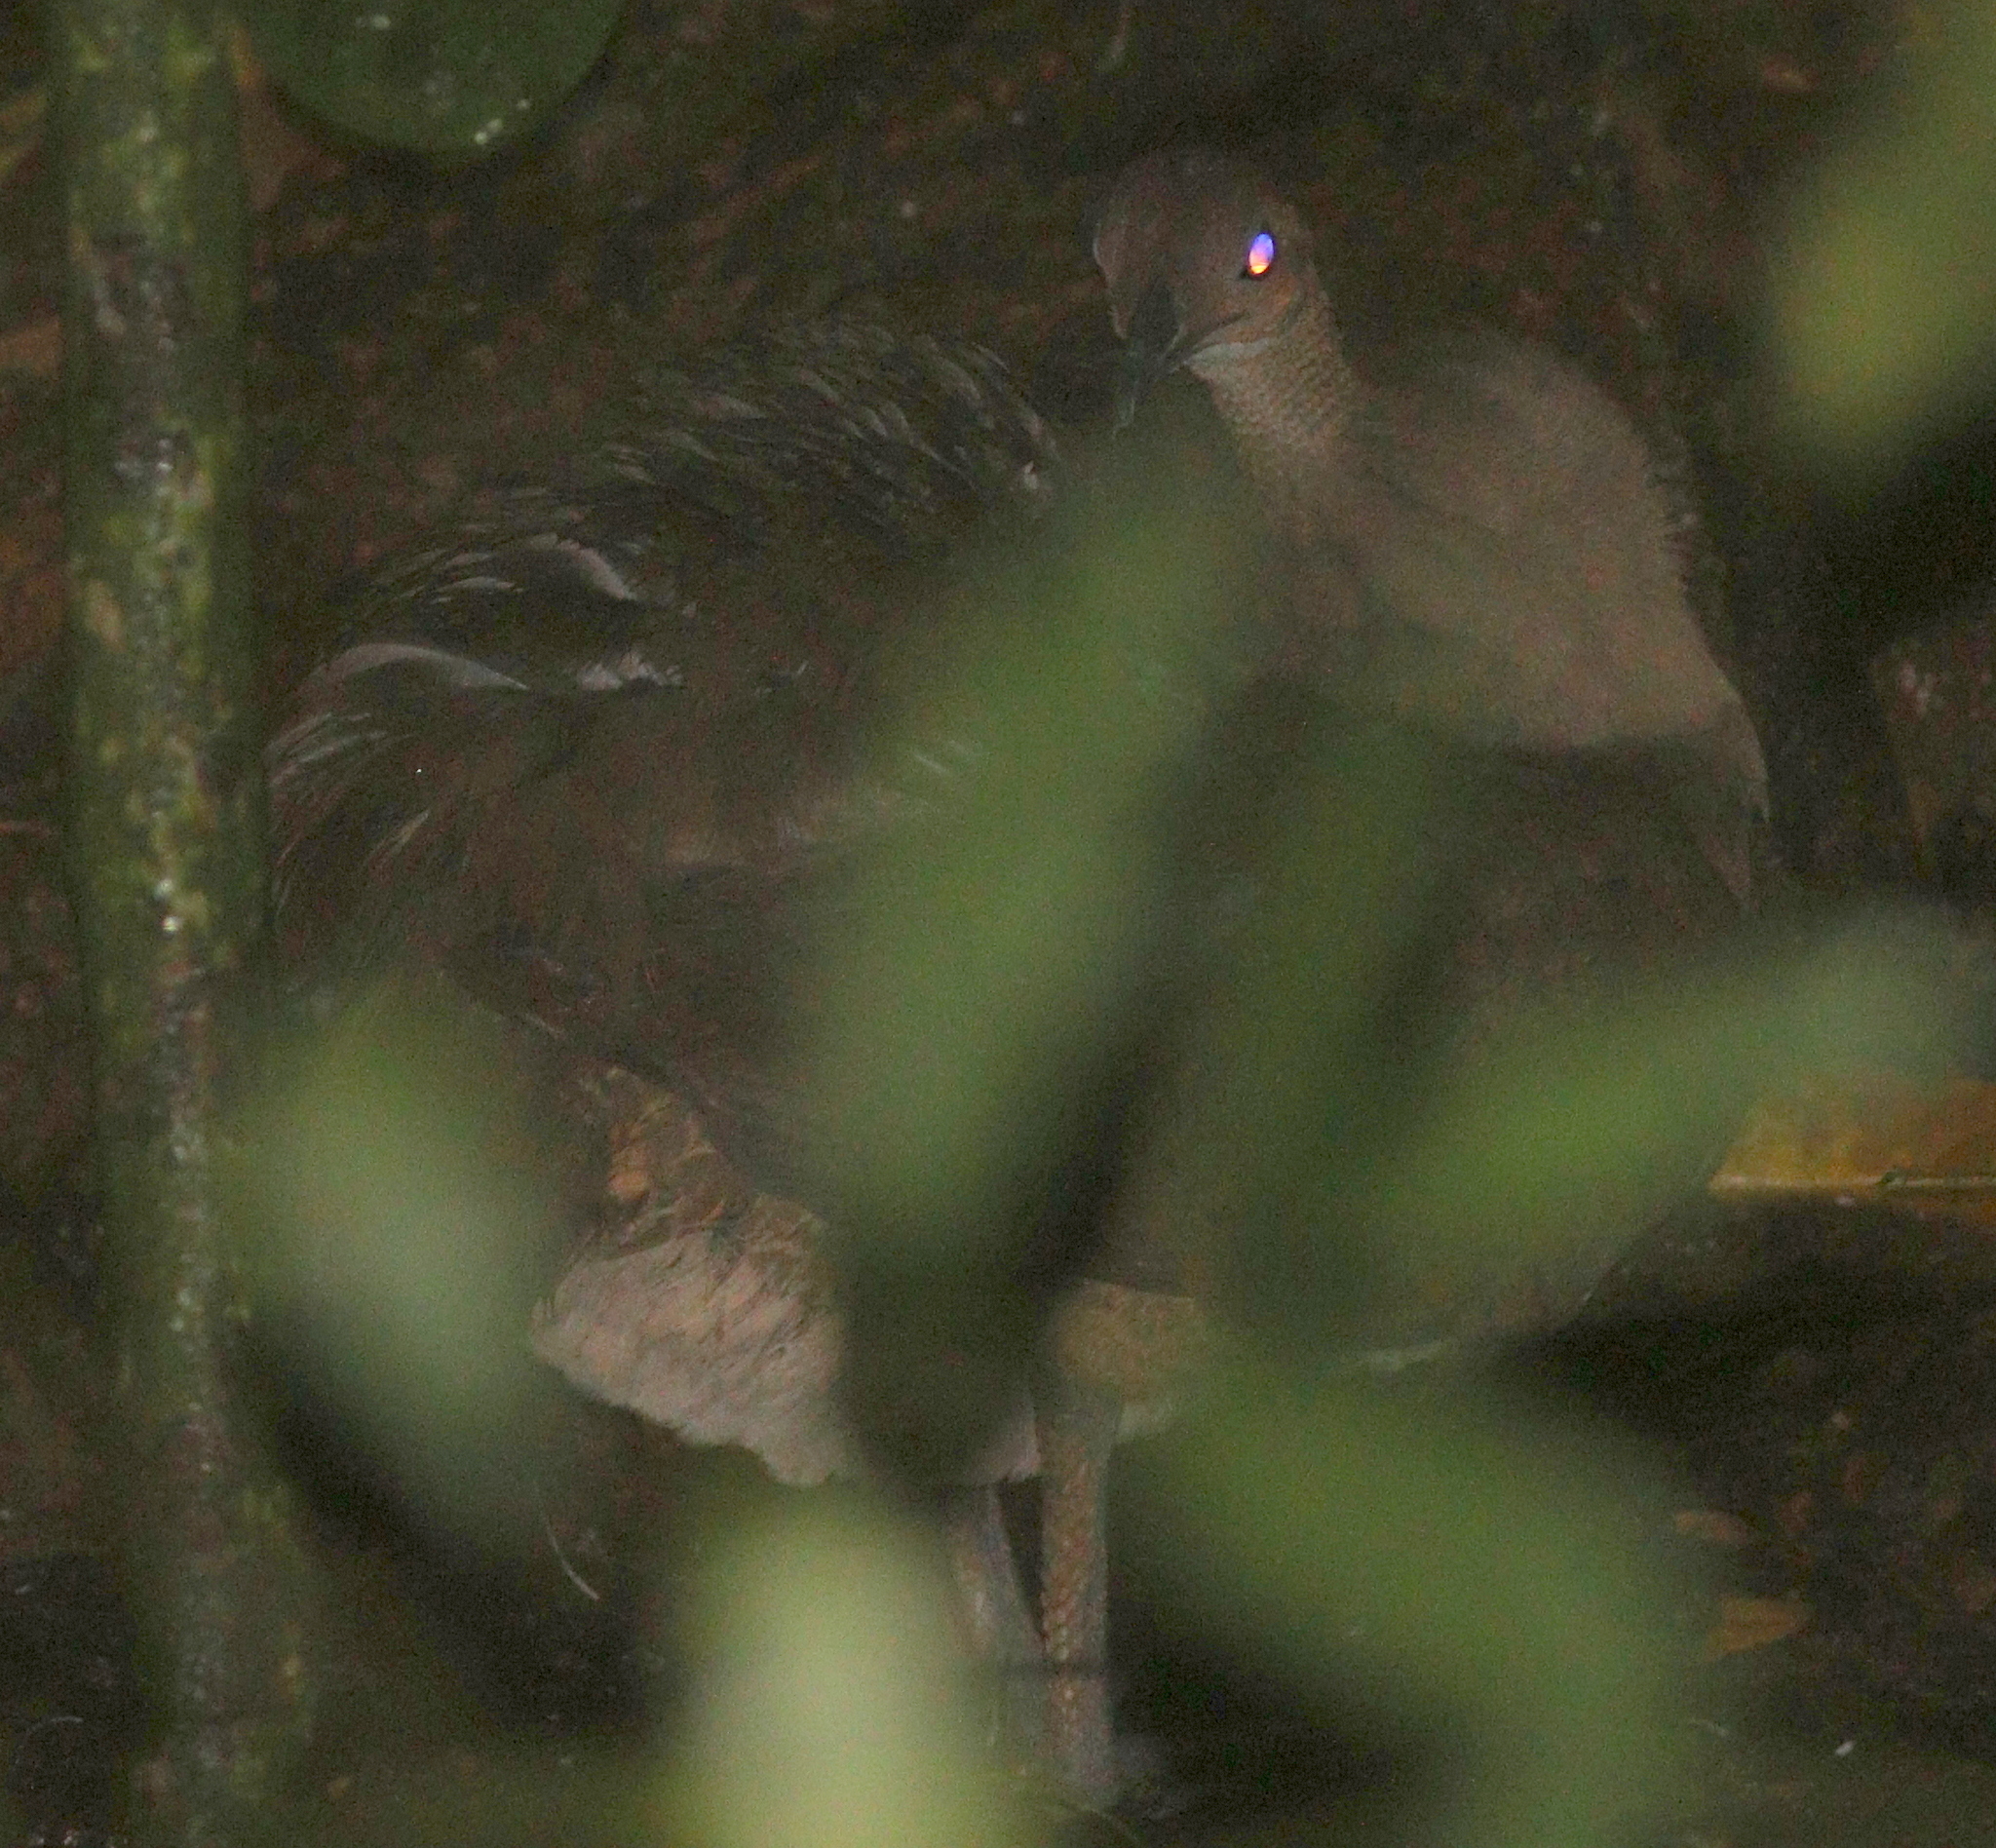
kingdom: Animalia
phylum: Chordata
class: Aves
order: Tinamiformes
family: Tinamidae
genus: Tinamus
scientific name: Tinamus major
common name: Great tinamou
